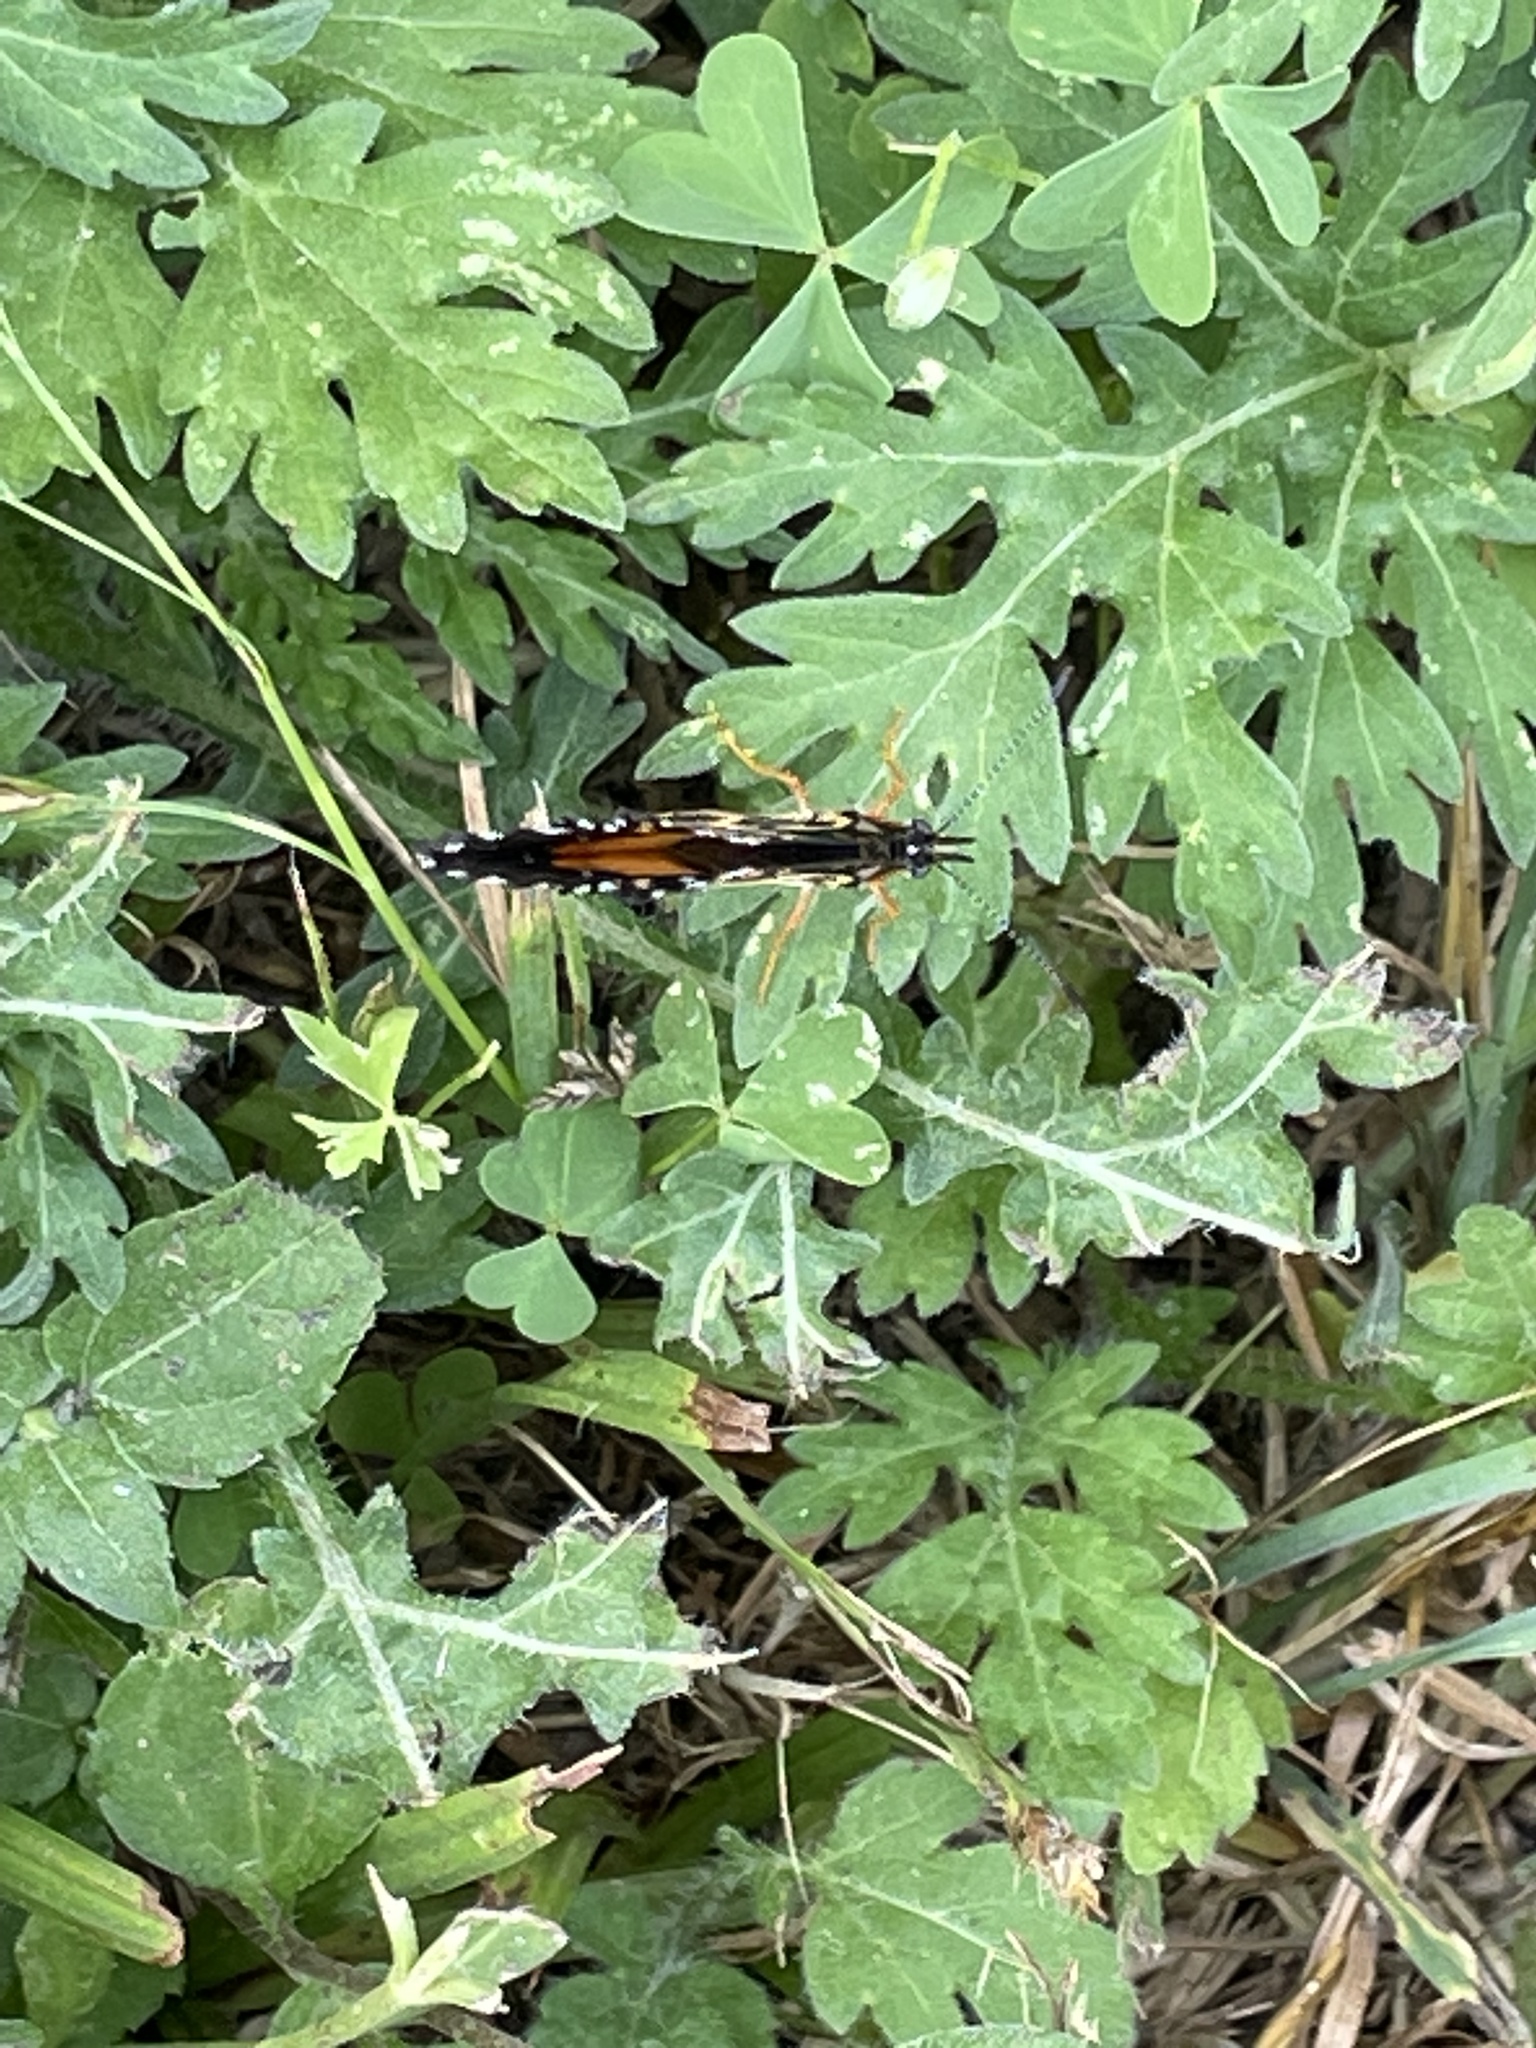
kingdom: Animalia
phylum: Arthropoda
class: Insecta
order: Lepidoptera
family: Nymphalidae
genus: Chlosyne
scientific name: Chlosyne lacinia
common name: Bordered patch
